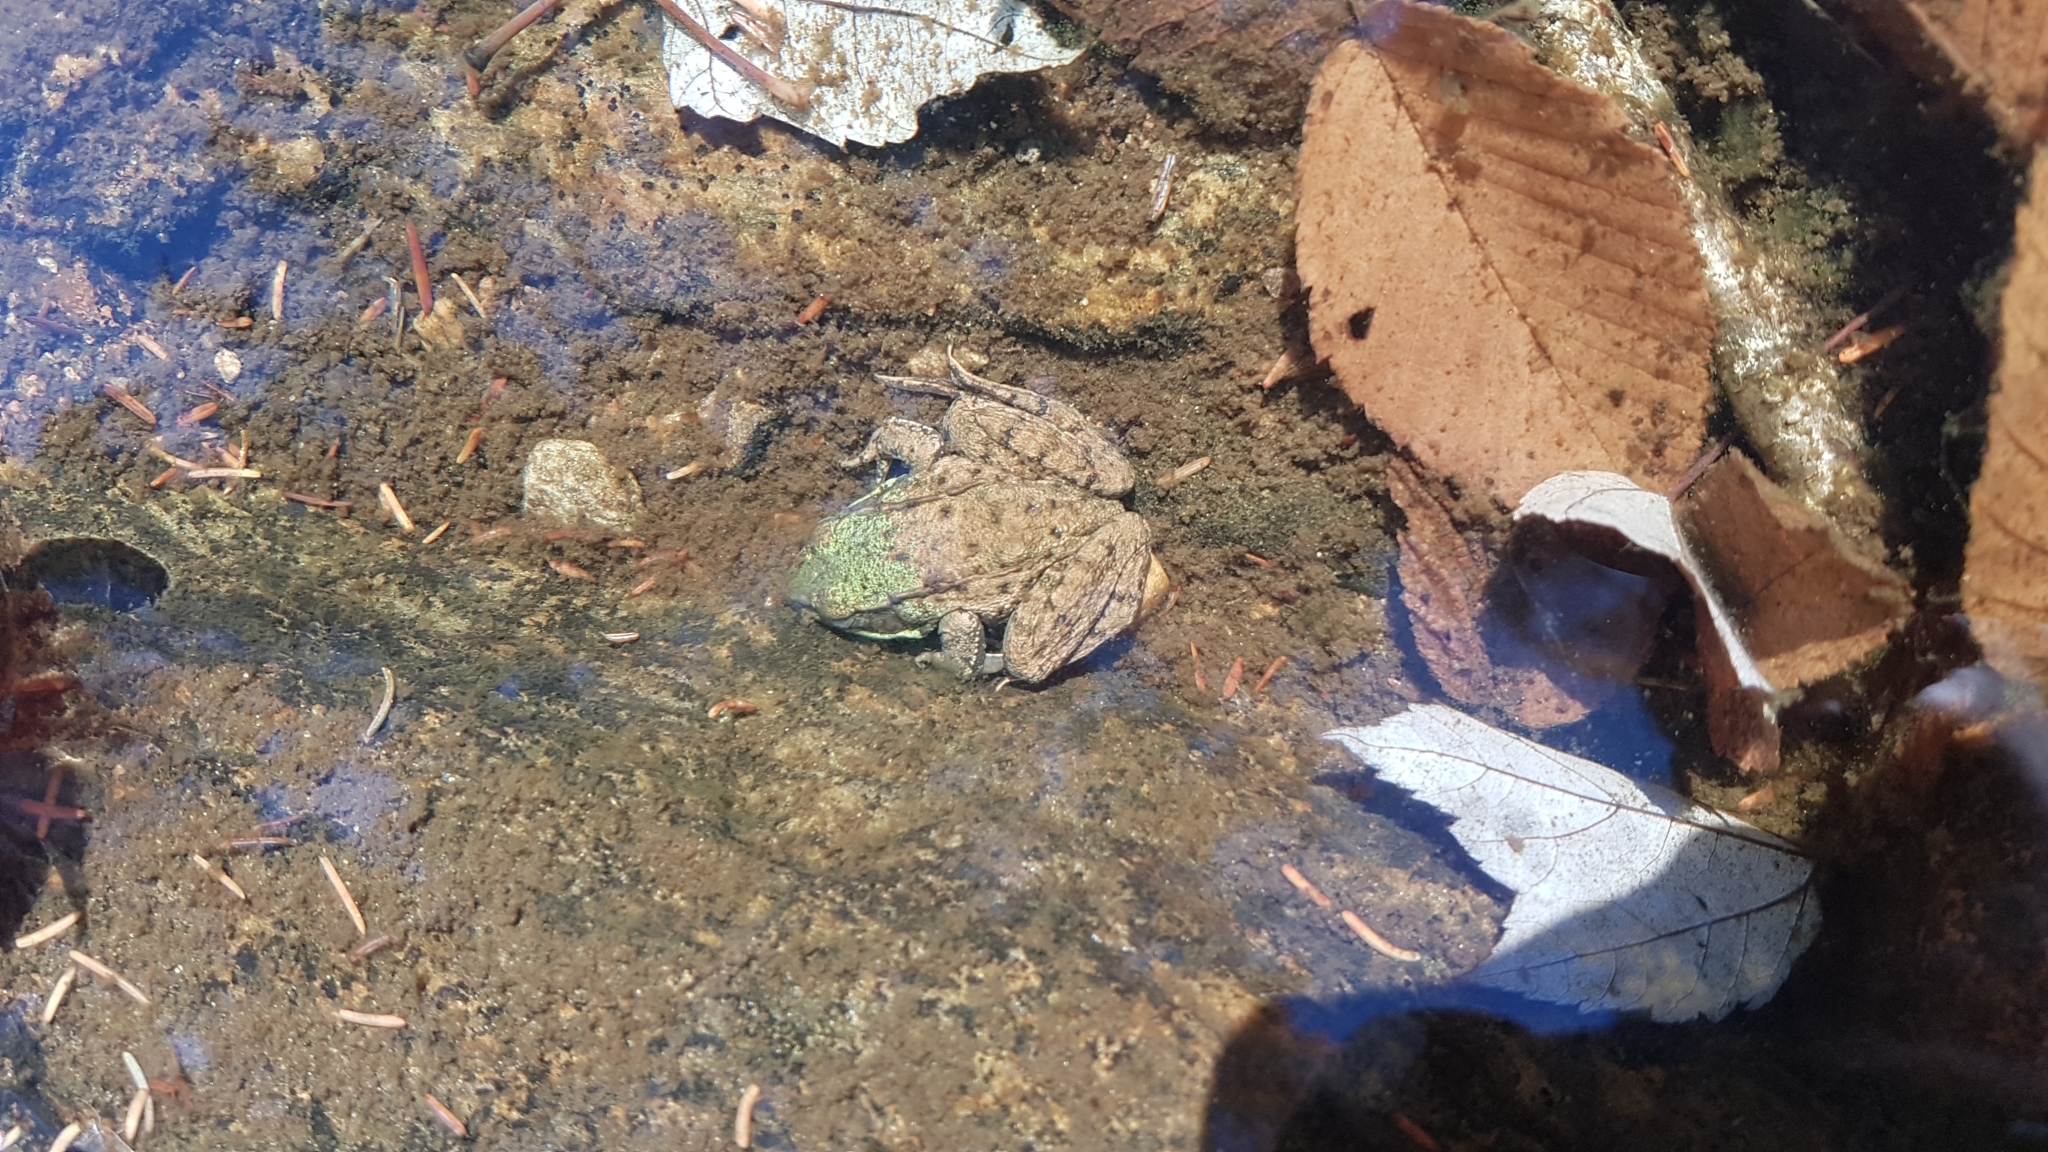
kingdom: Animalia
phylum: Chordata
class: Amphibia
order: Anura
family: Ranidae
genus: Lithobates
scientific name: Lithobates clamitans
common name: Green frog
